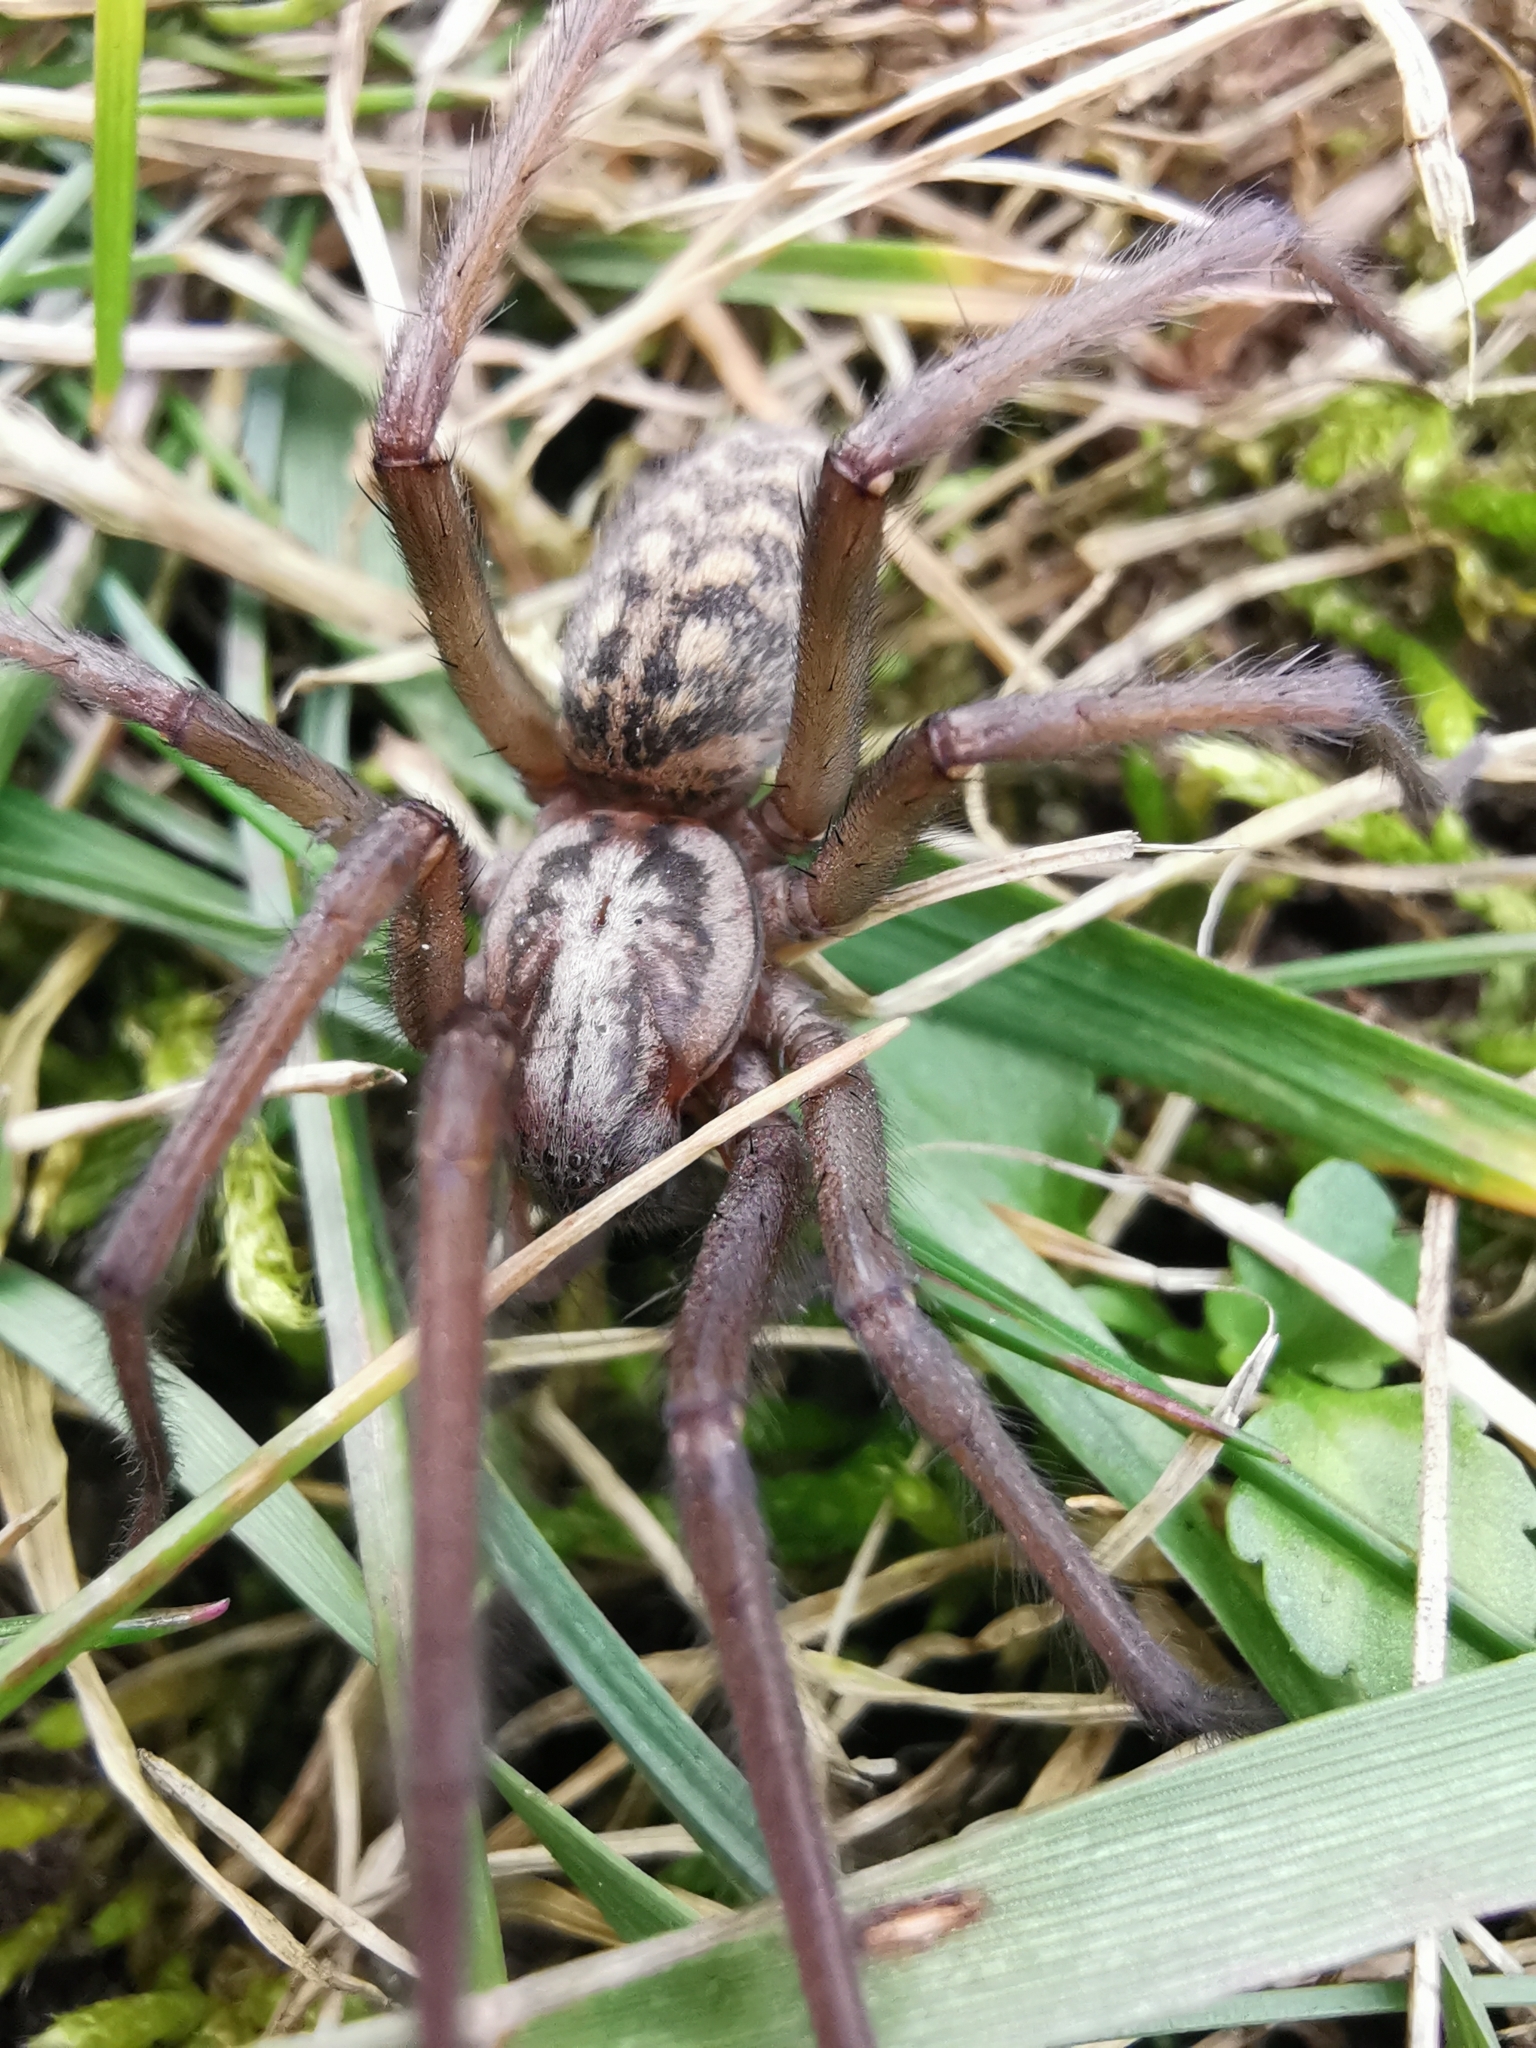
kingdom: Animalia
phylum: Arthropoda
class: Arachnida
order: Araneae
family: Agelenidae
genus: Eratigena
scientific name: Eratigena atrica
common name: Giant house spider
